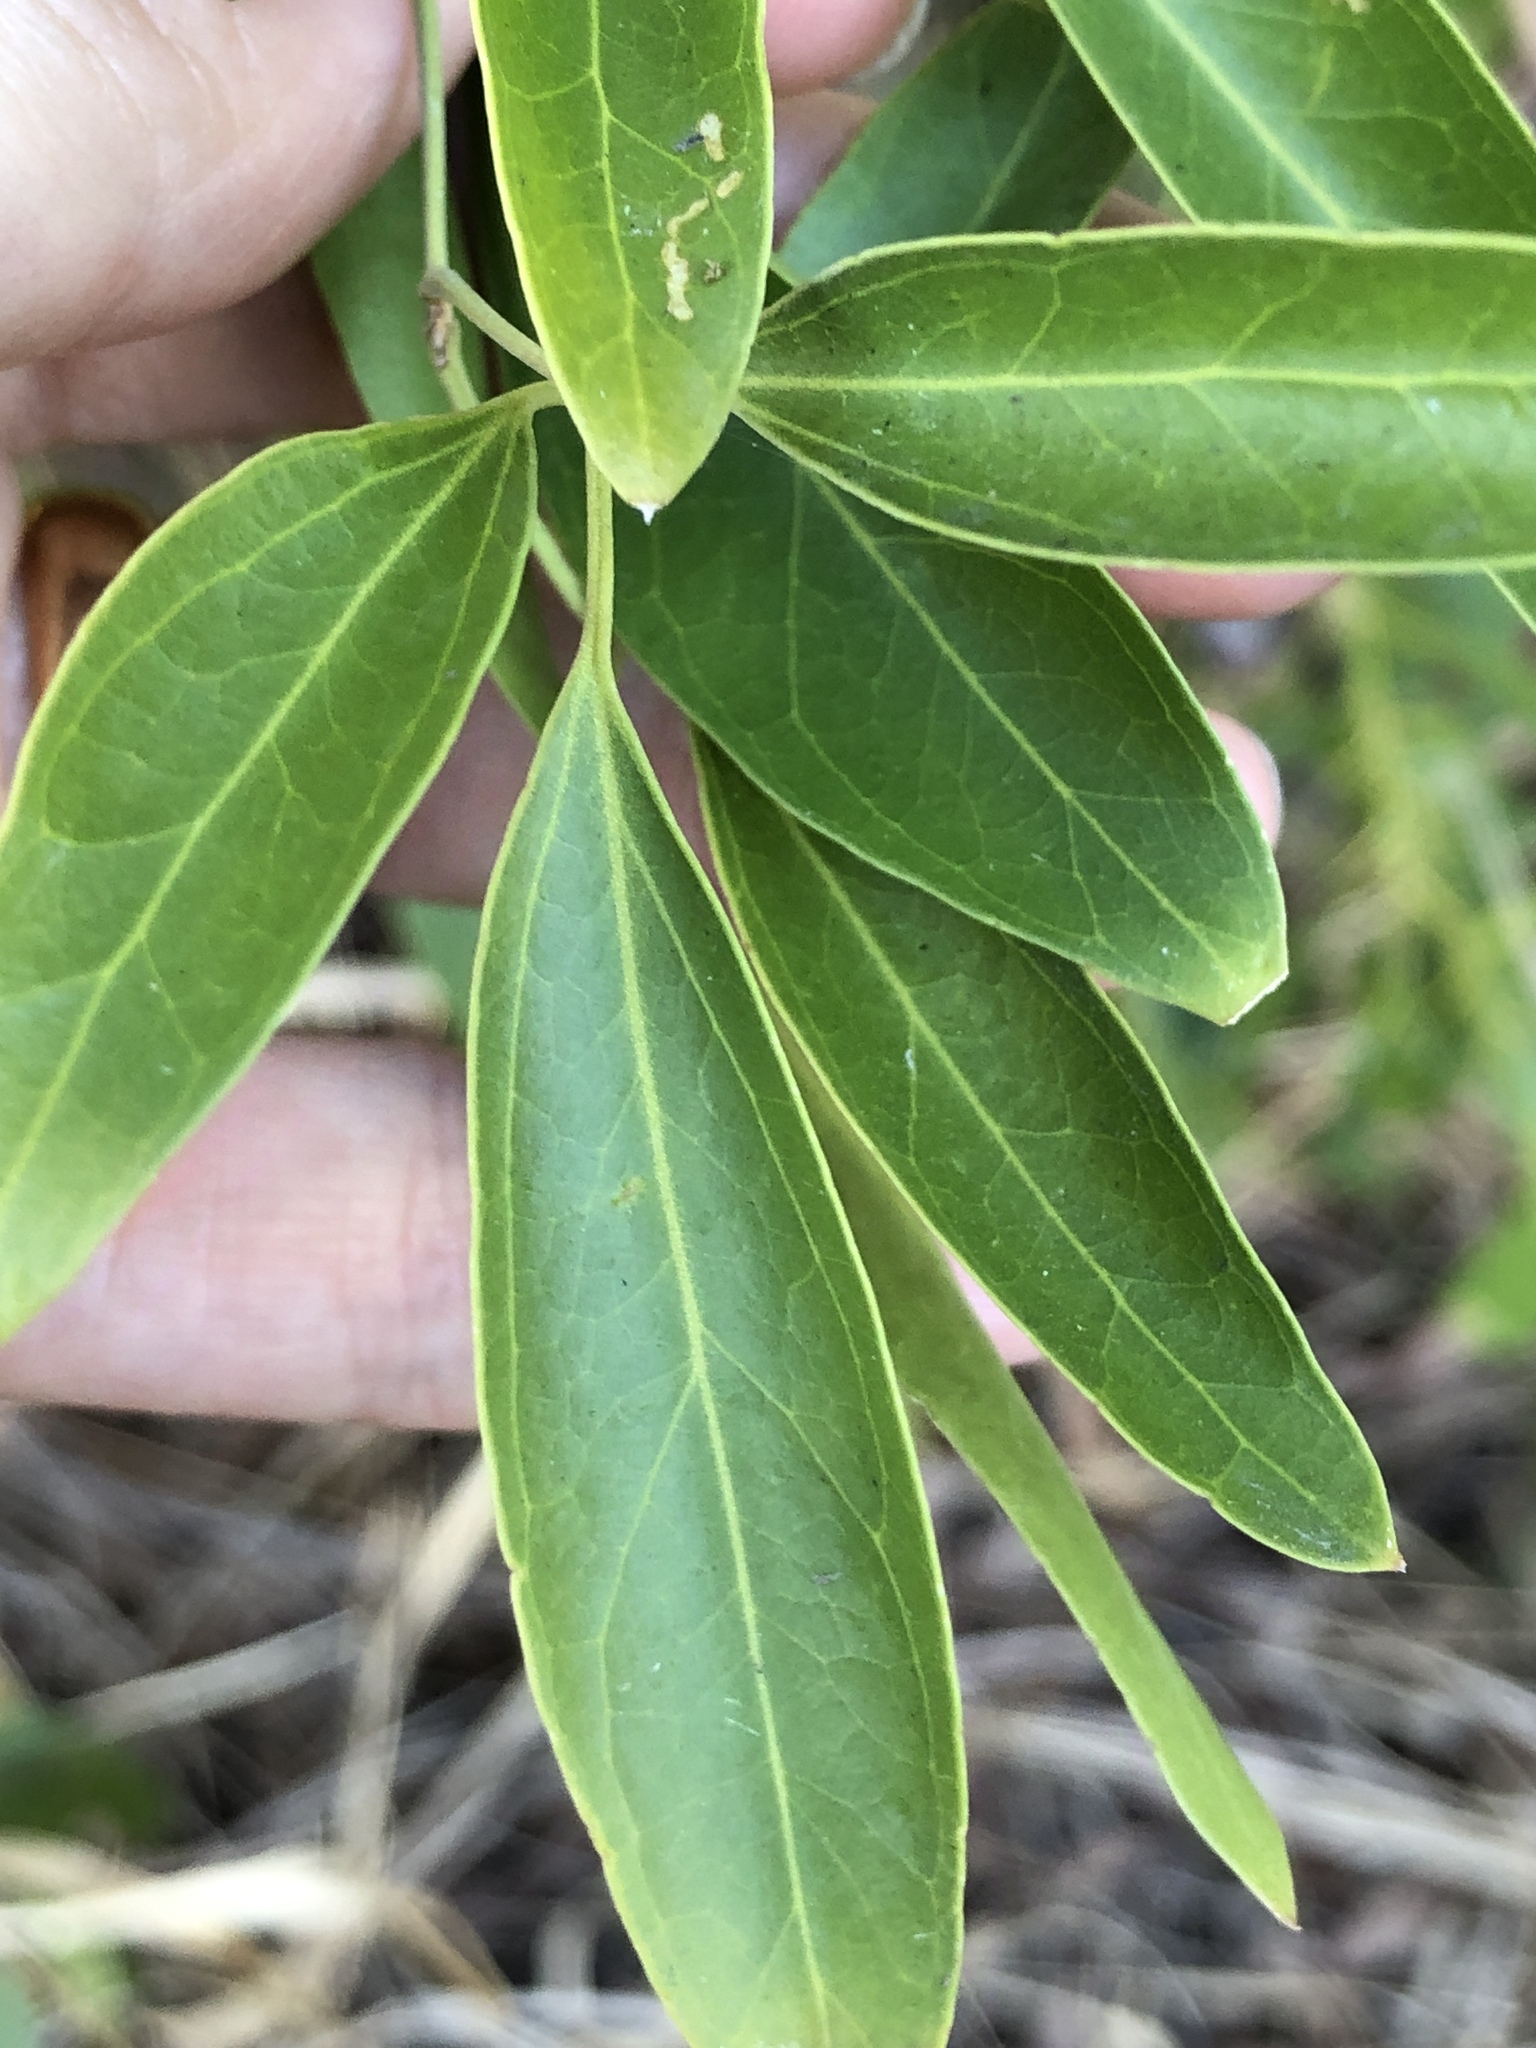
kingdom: Plantae
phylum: Tracheophyta
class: Magnoliopsida
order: Lamiales
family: Oleaceae
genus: Jasminum
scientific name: Jasminum didymum
